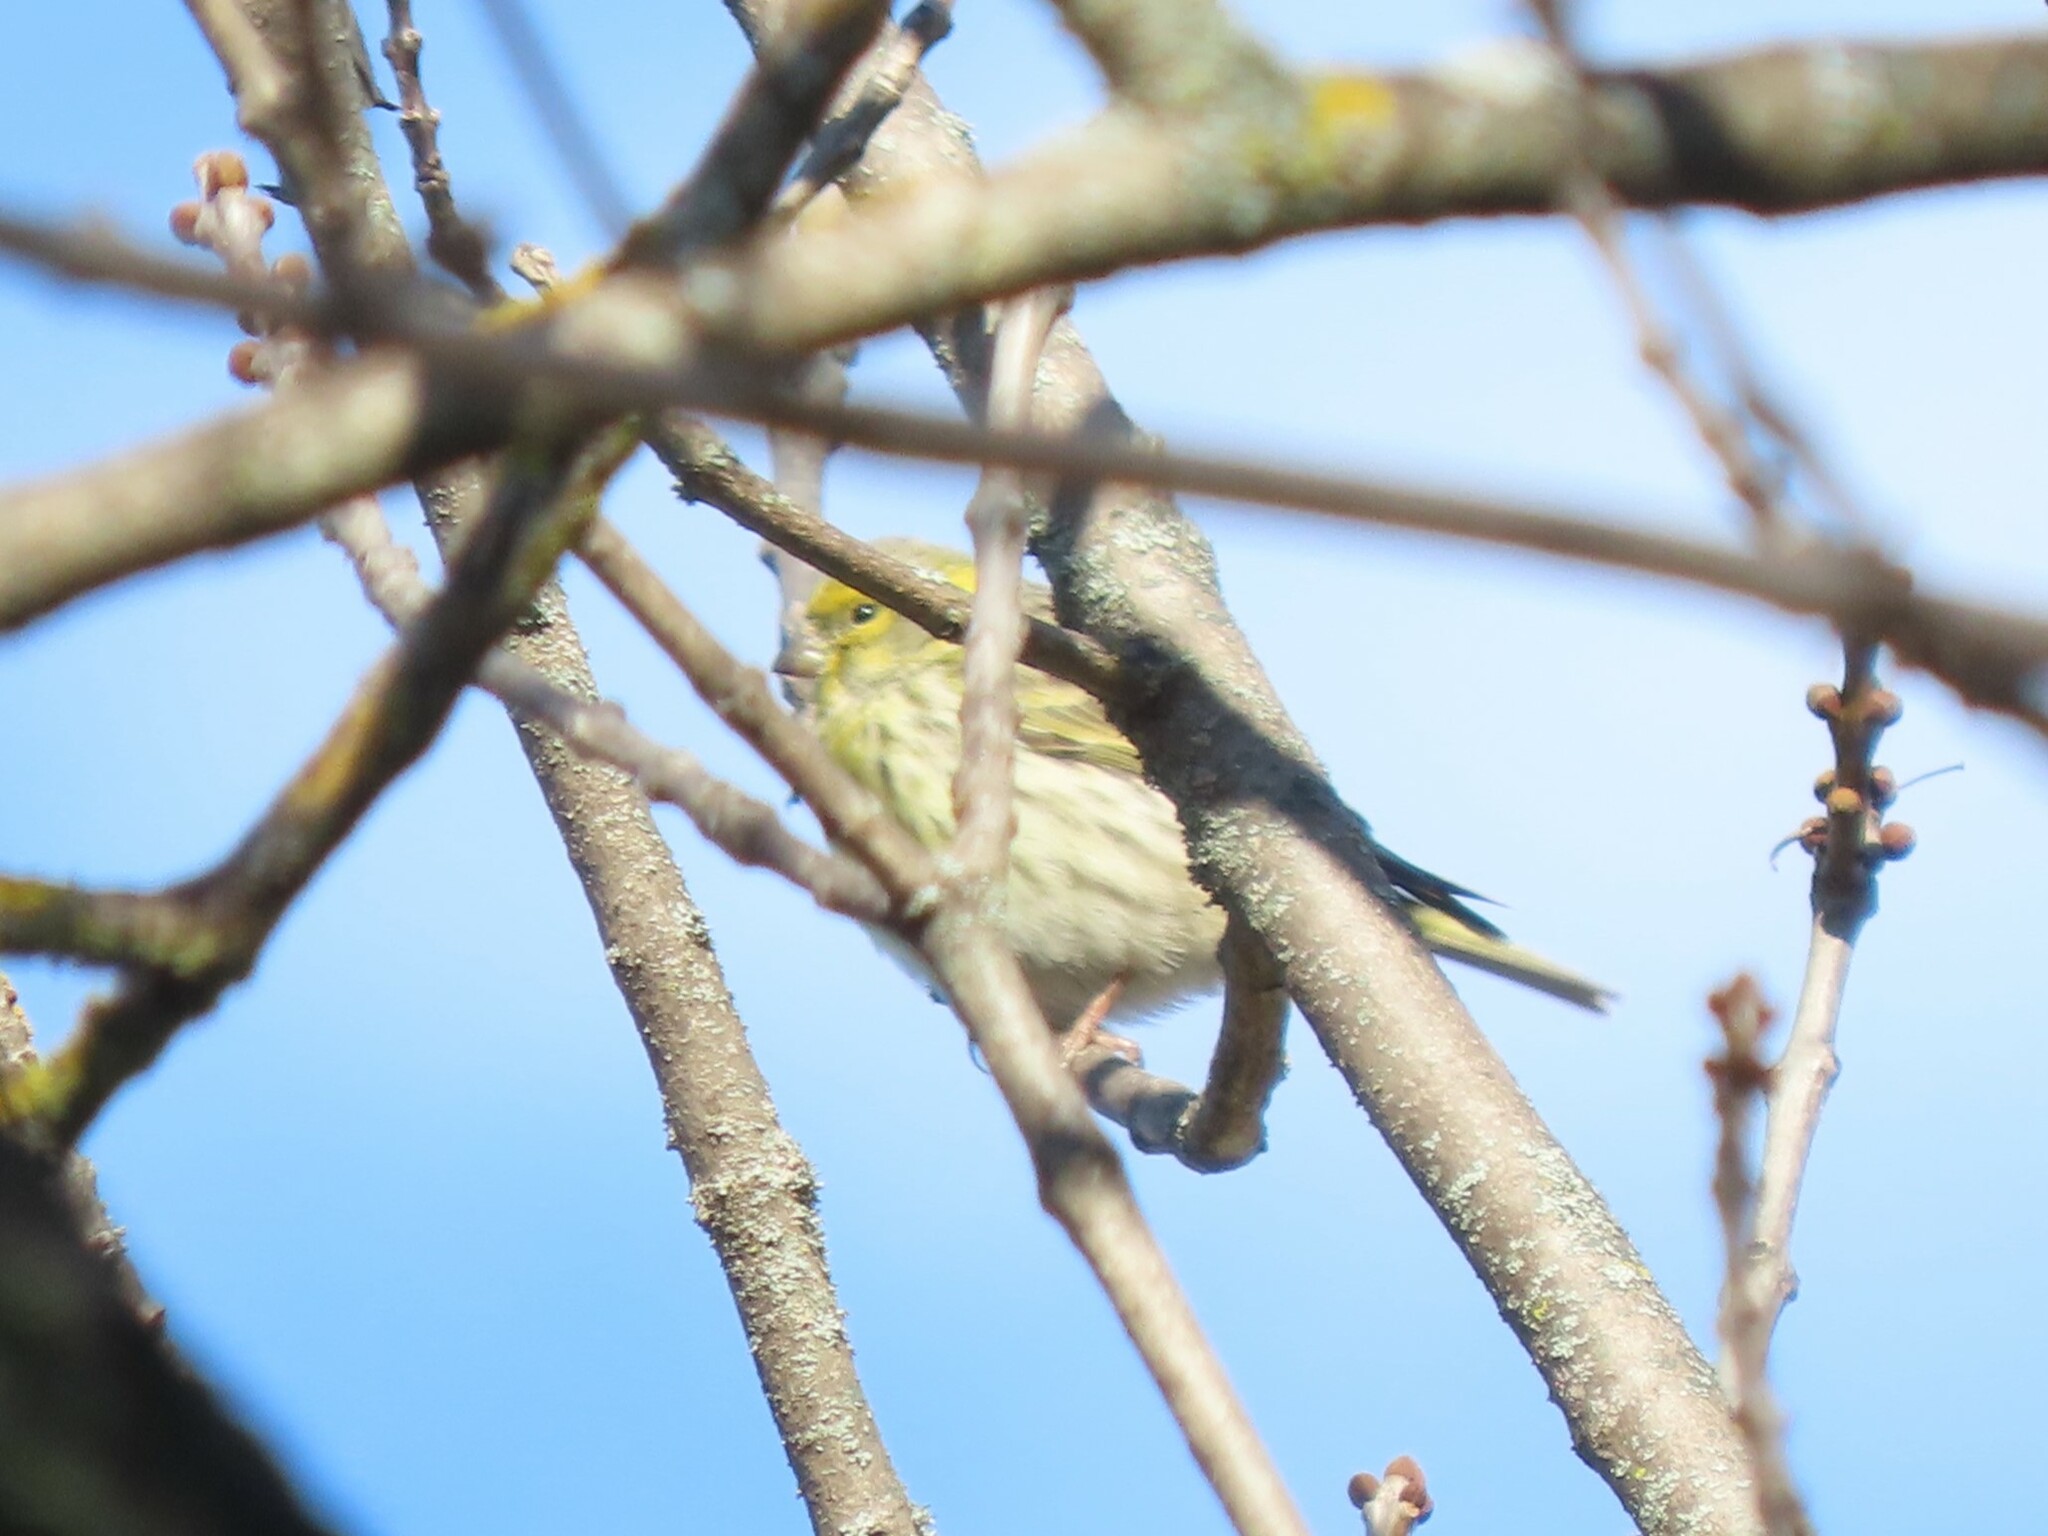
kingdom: Animalia
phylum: Chordata
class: Aves
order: Passeriformes
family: Fringillidae
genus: Serinus
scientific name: Serinus serinus
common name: European serin
